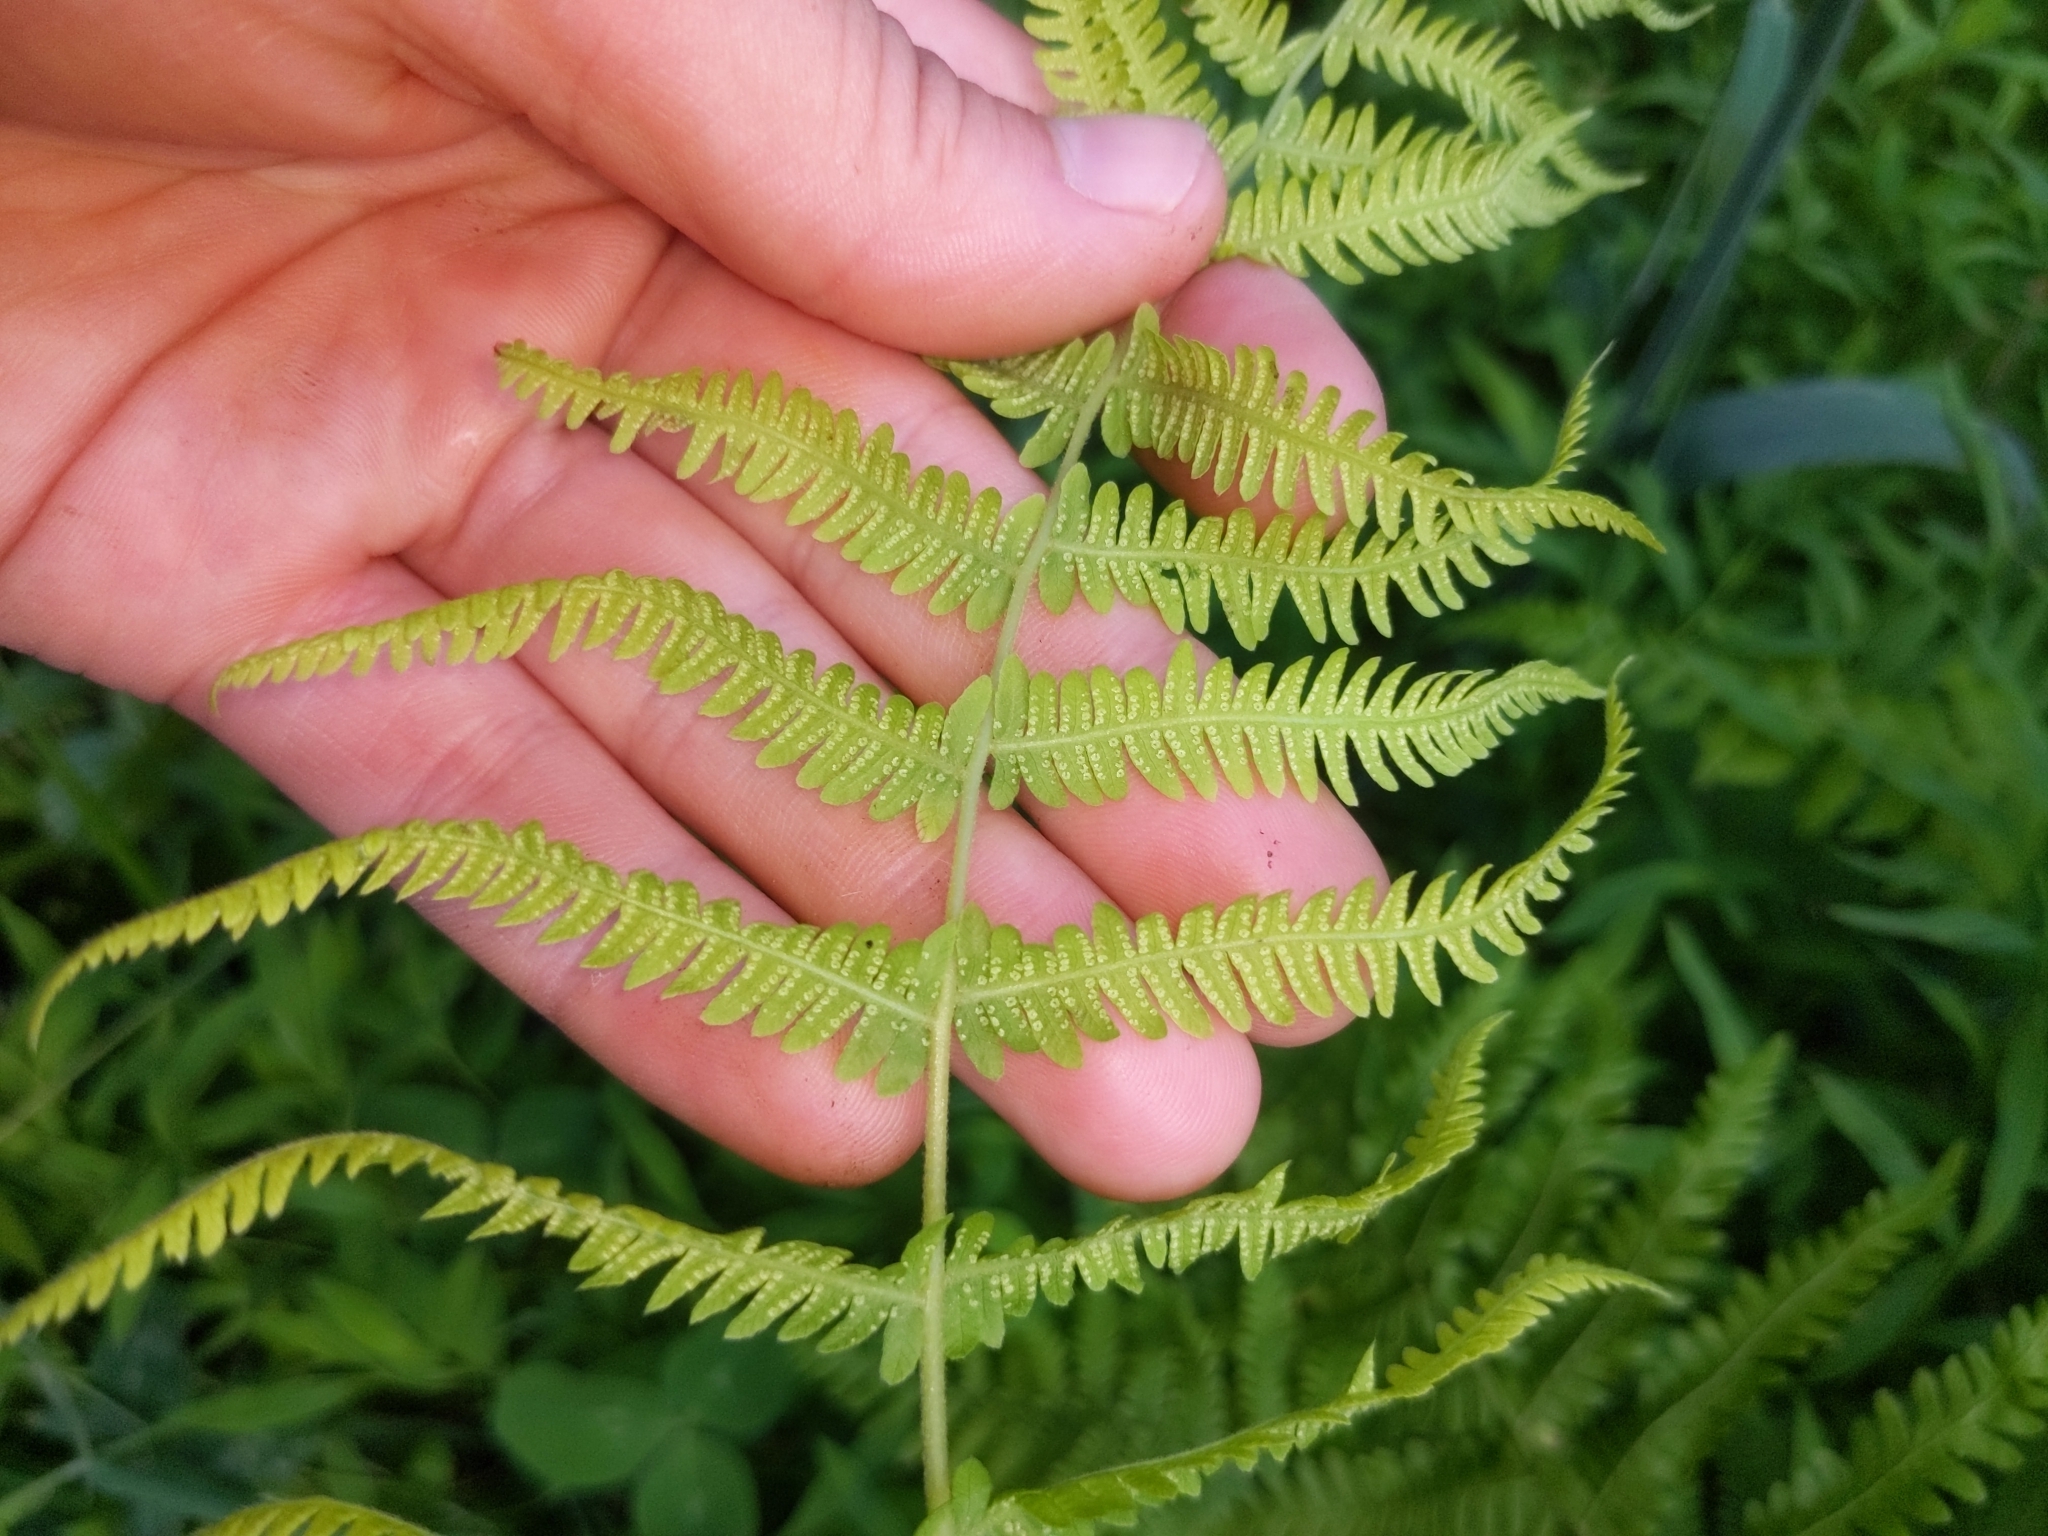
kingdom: Plantae
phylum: Tracheophyta
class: Polypodiopsida
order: Polypodiales
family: Thelypteridaceae
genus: Amauropelta
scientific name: Amauropelta noveboracensis
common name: New york fern
